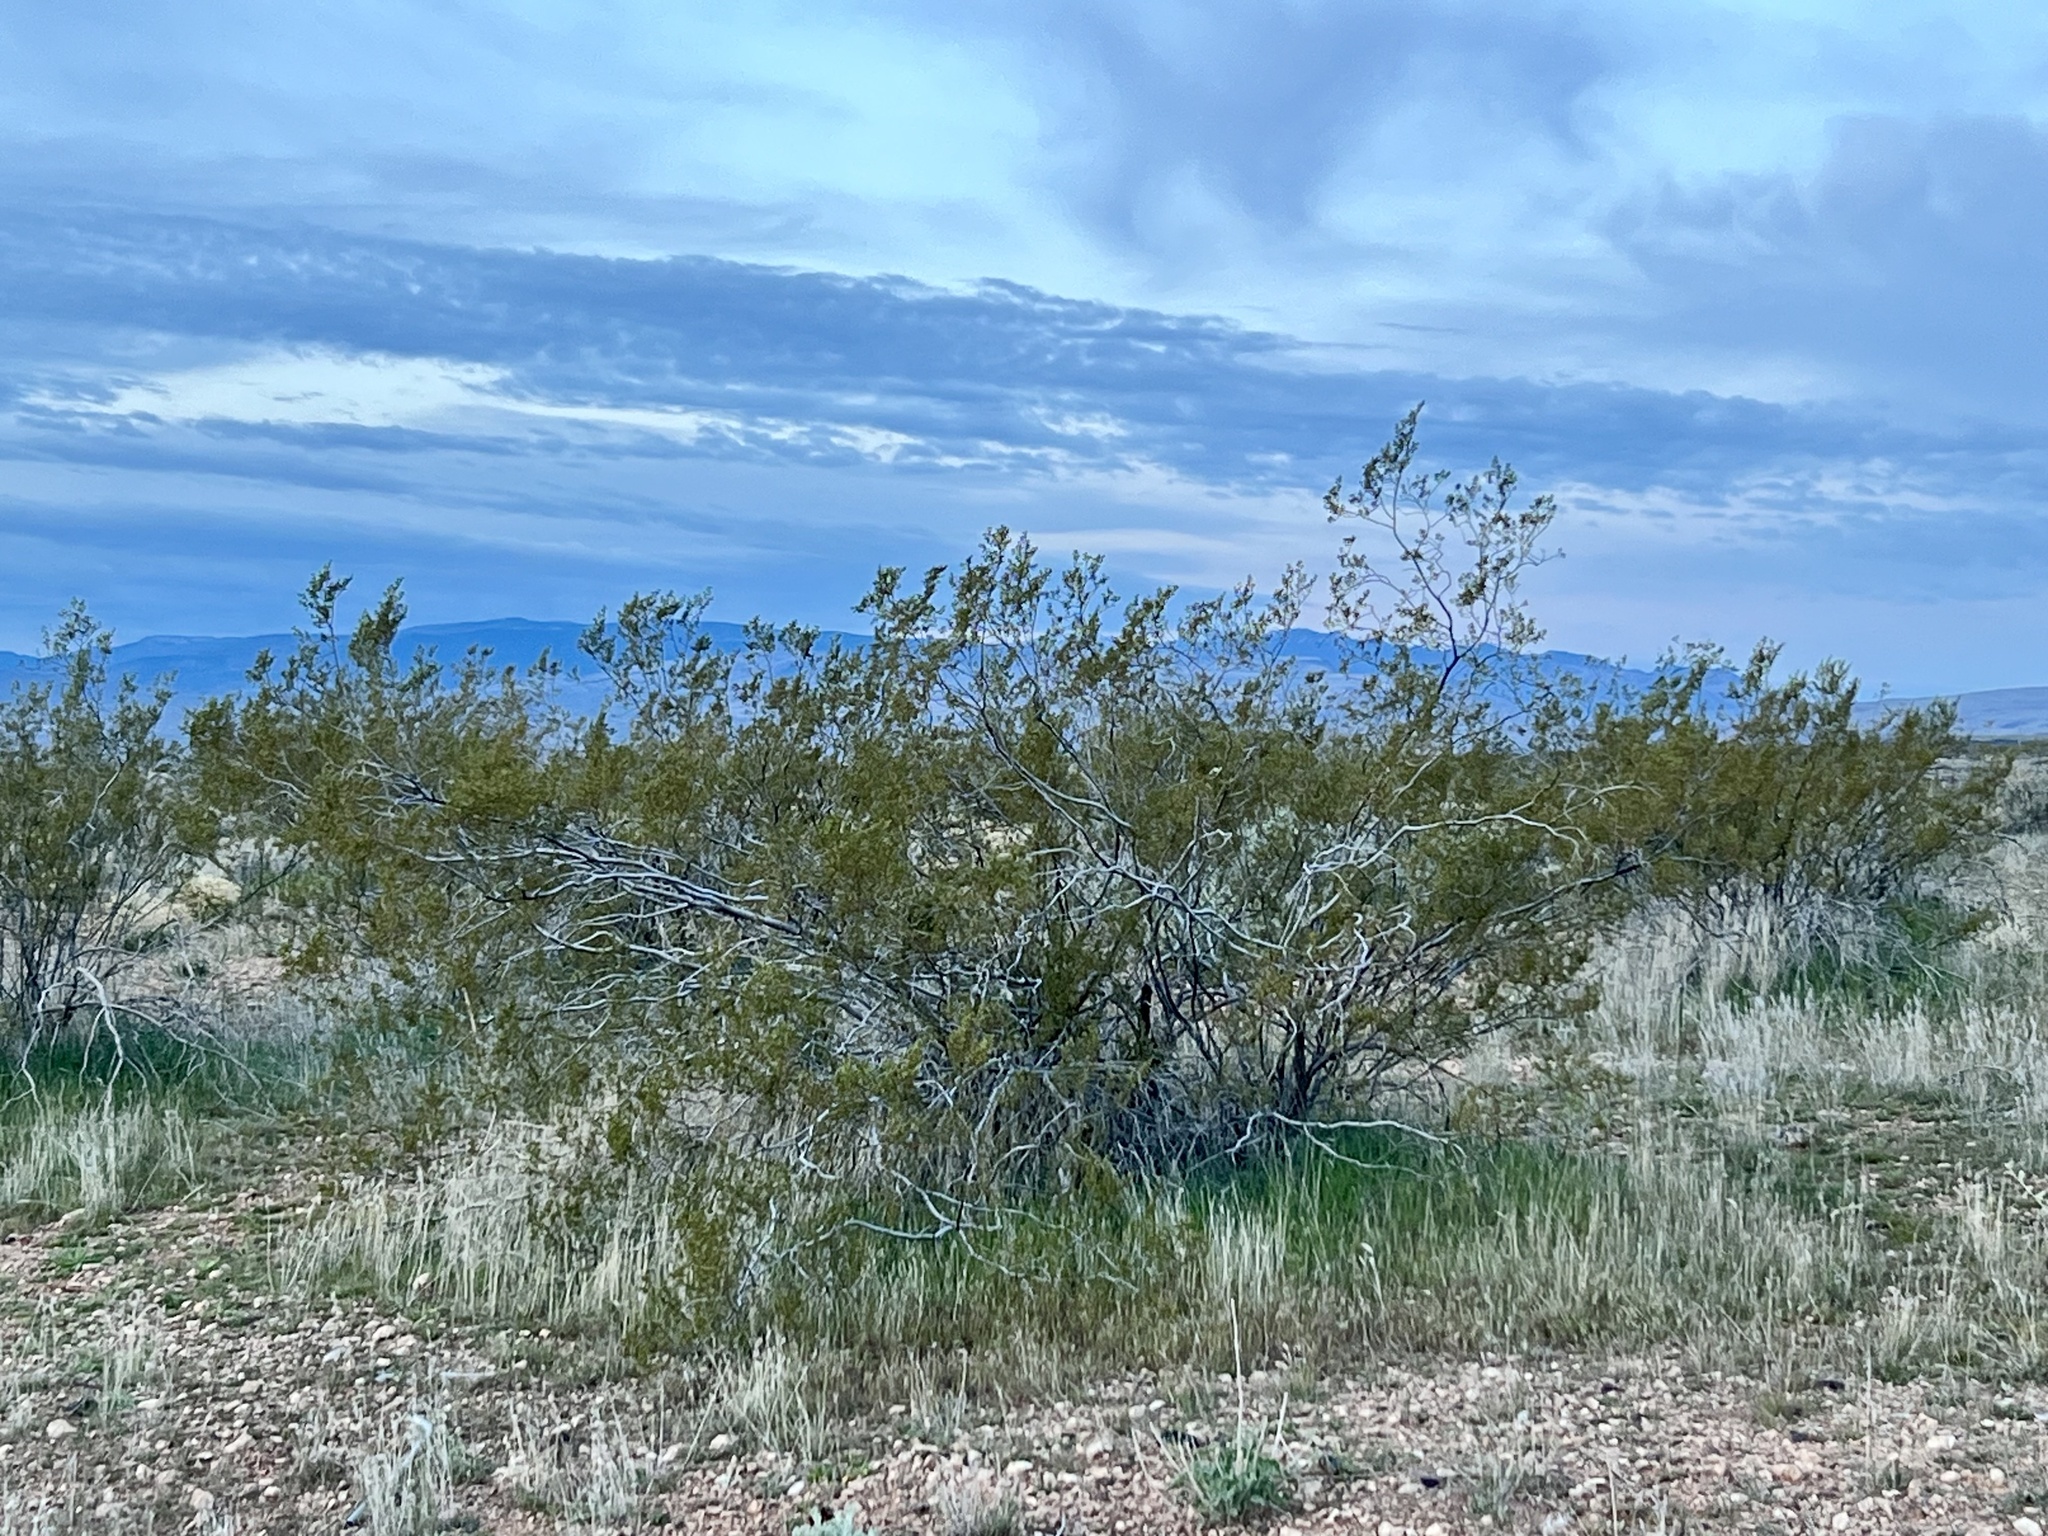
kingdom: Plantae
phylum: Tracheophyta
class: Magnoliopsida
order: Zygophyllales
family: Zygophyllaceae
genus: Larrea
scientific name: Larrea tridentata
